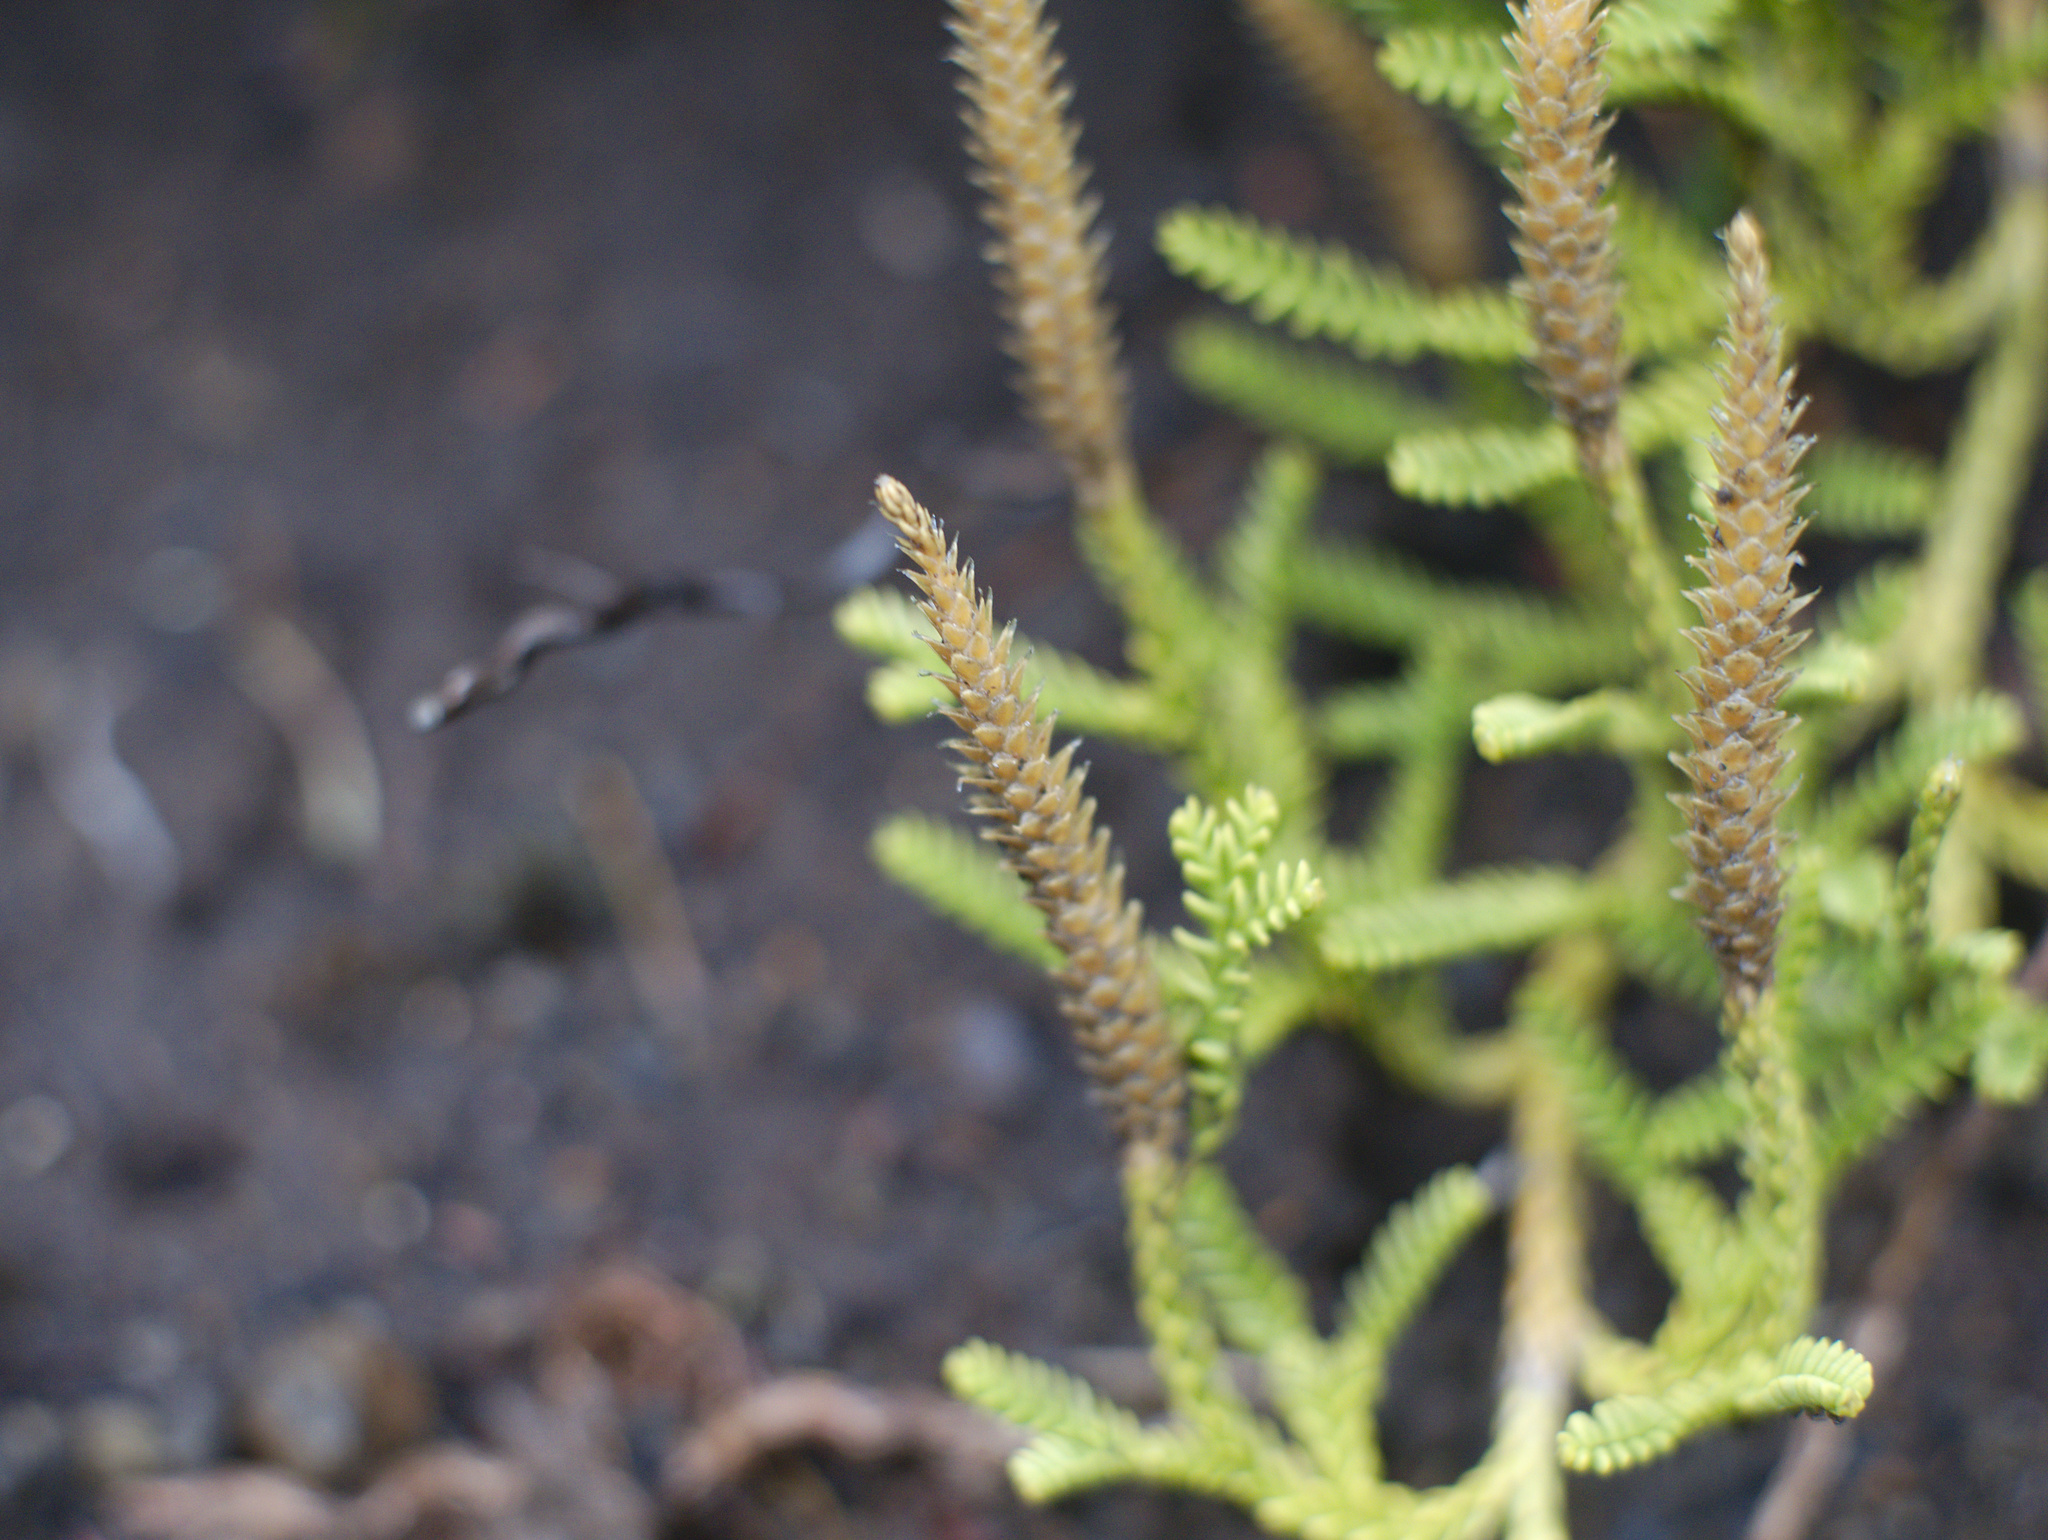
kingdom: Plantae
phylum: Tracheophyta
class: Lycopodiopsida
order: Lycopodiales
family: Lycopodiaceae
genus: Diphasium
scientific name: Diphasium scariosum
